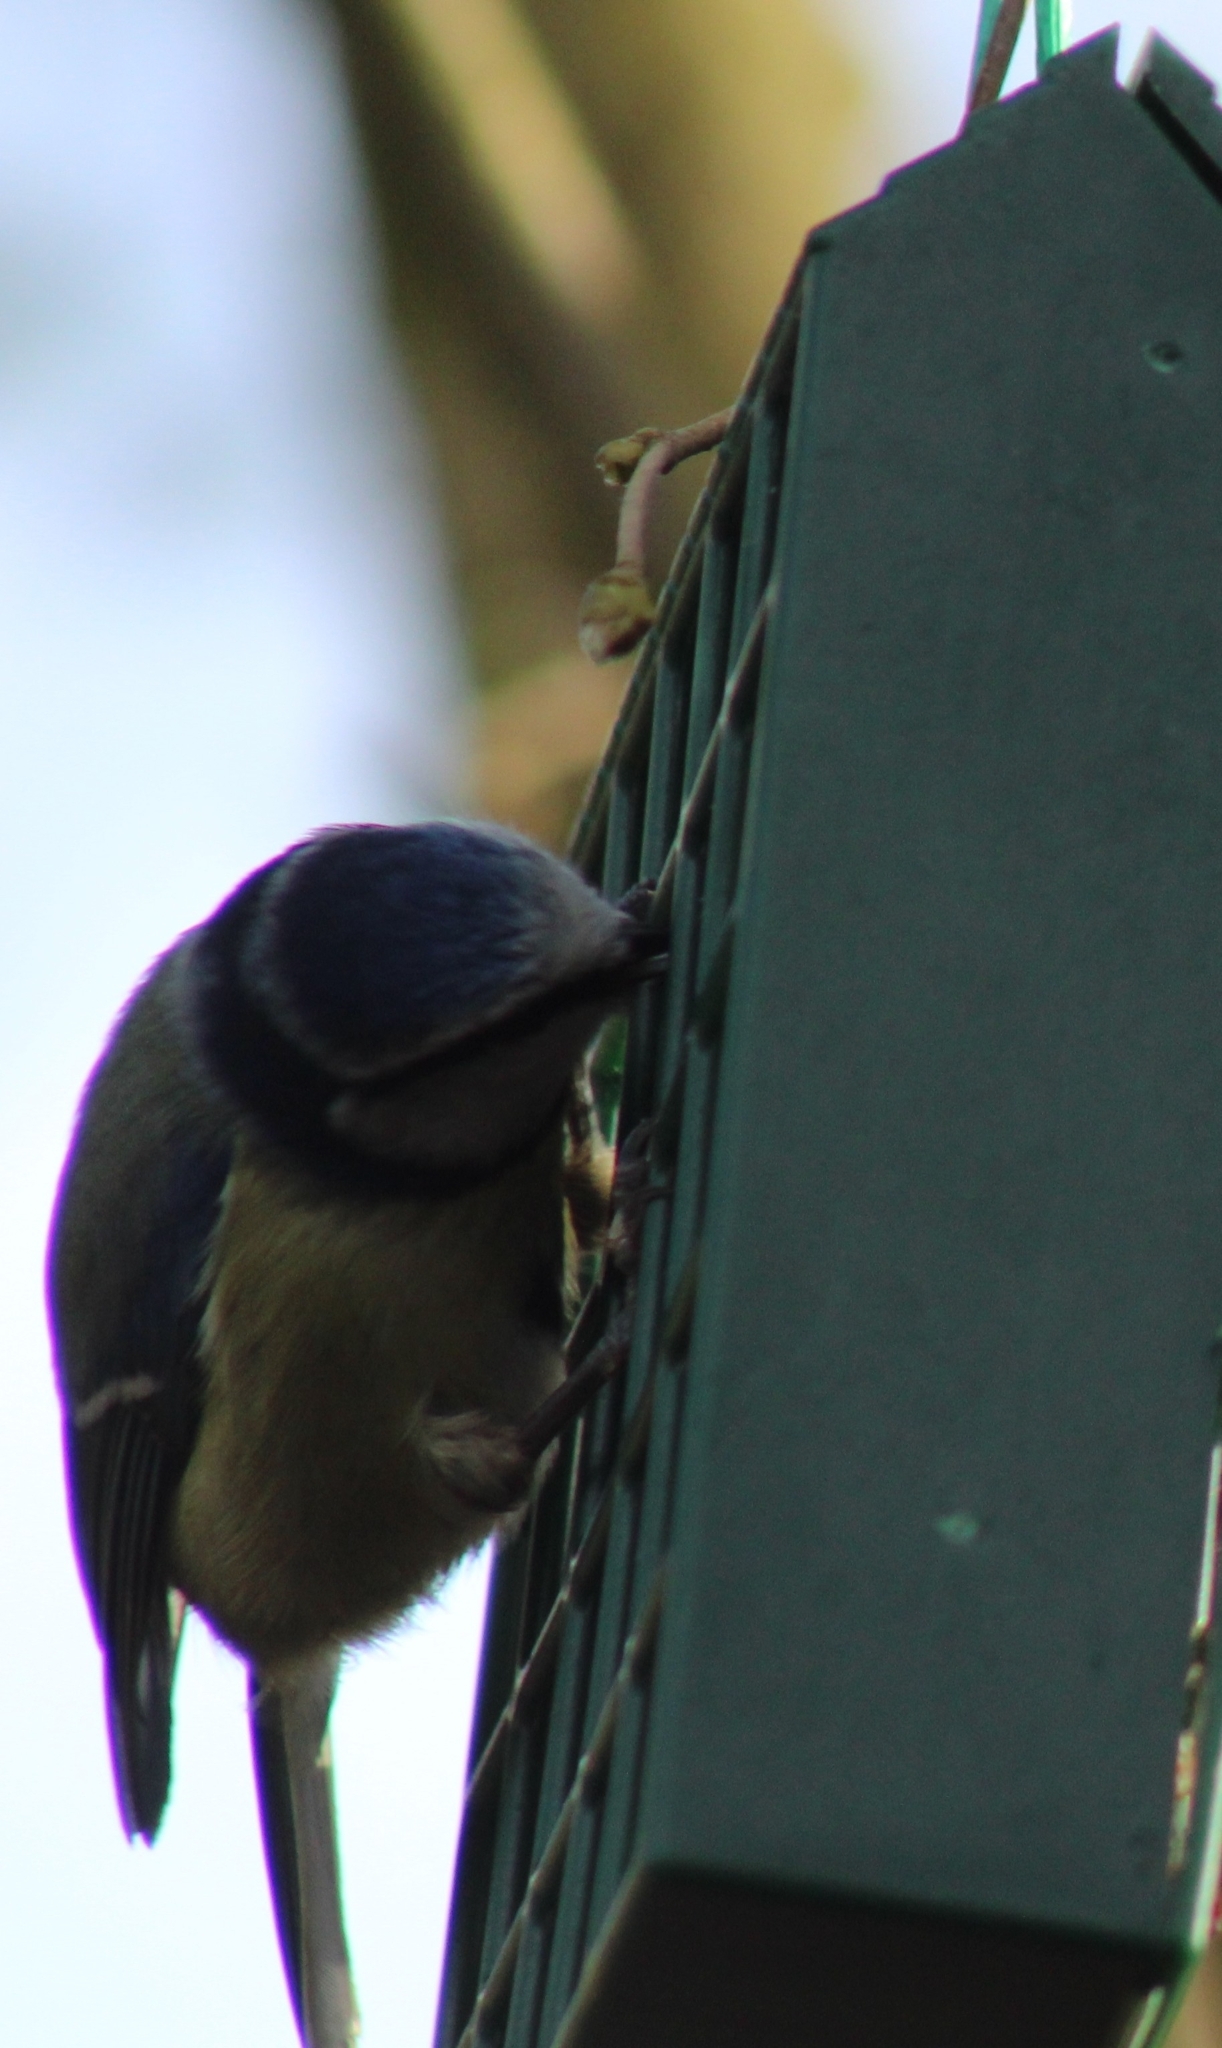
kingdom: Animalia
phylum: Chordata
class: Aves
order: Passeriformes
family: Paridae
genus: Cyanistes
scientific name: Cyanistes caeruleus
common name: Eurasian blue tit
